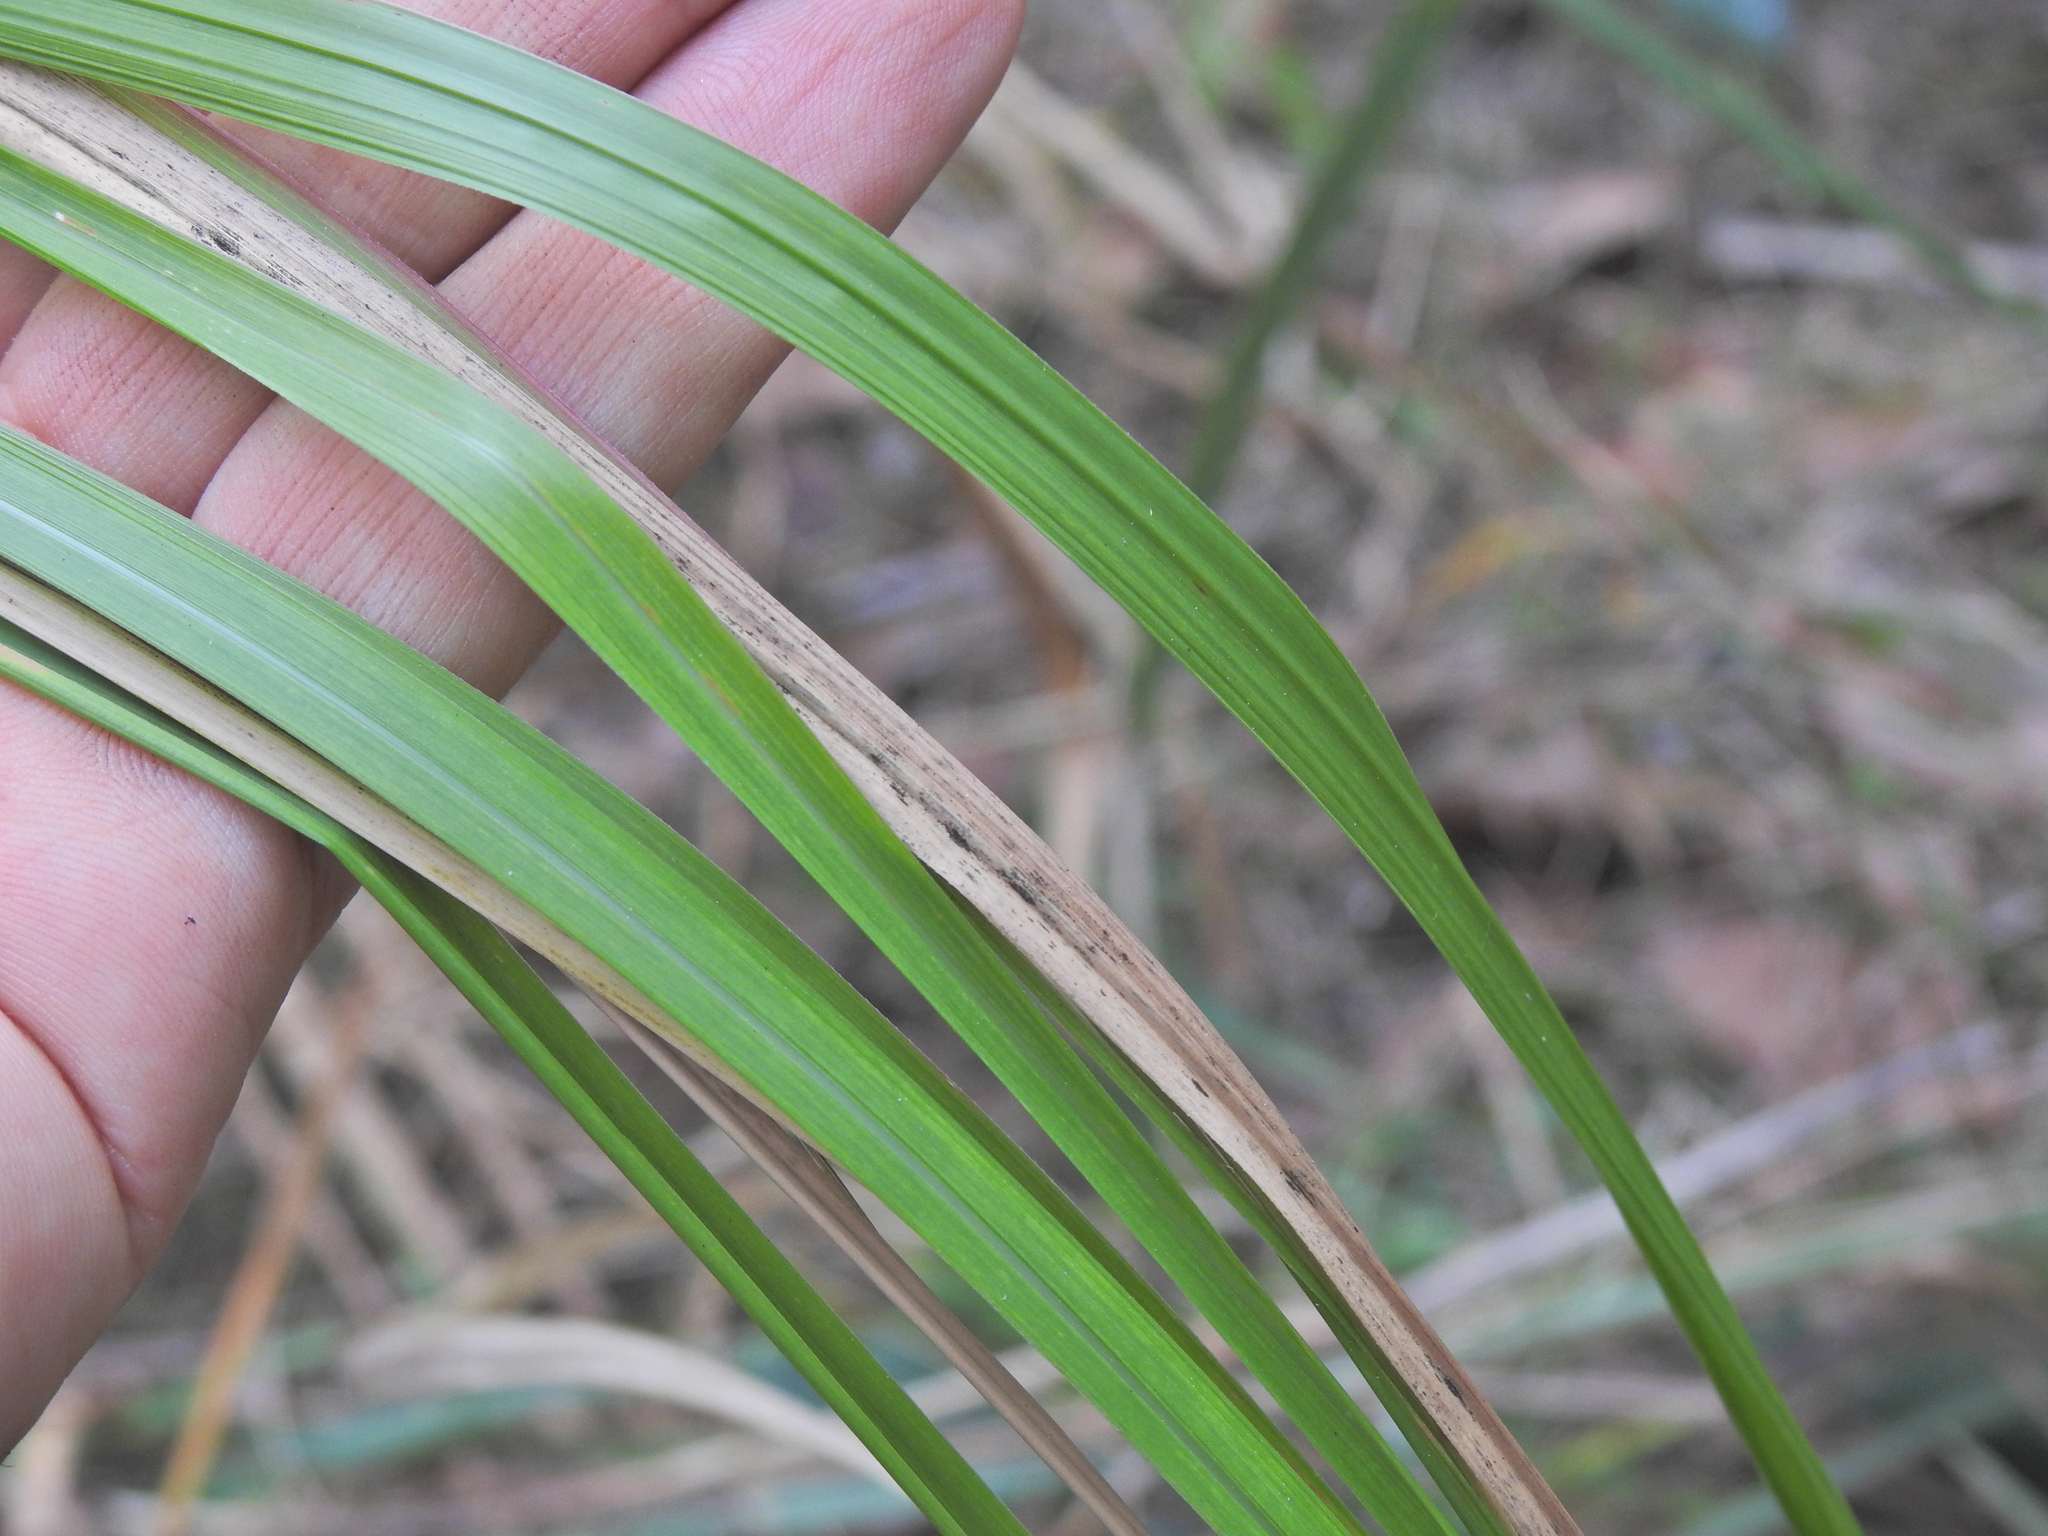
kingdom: Plantae
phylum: Tracheophyta
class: Liliopsida
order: Poales
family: Poaceae
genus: Imperata
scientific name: Imperata cylindrica
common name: Cogongrass
